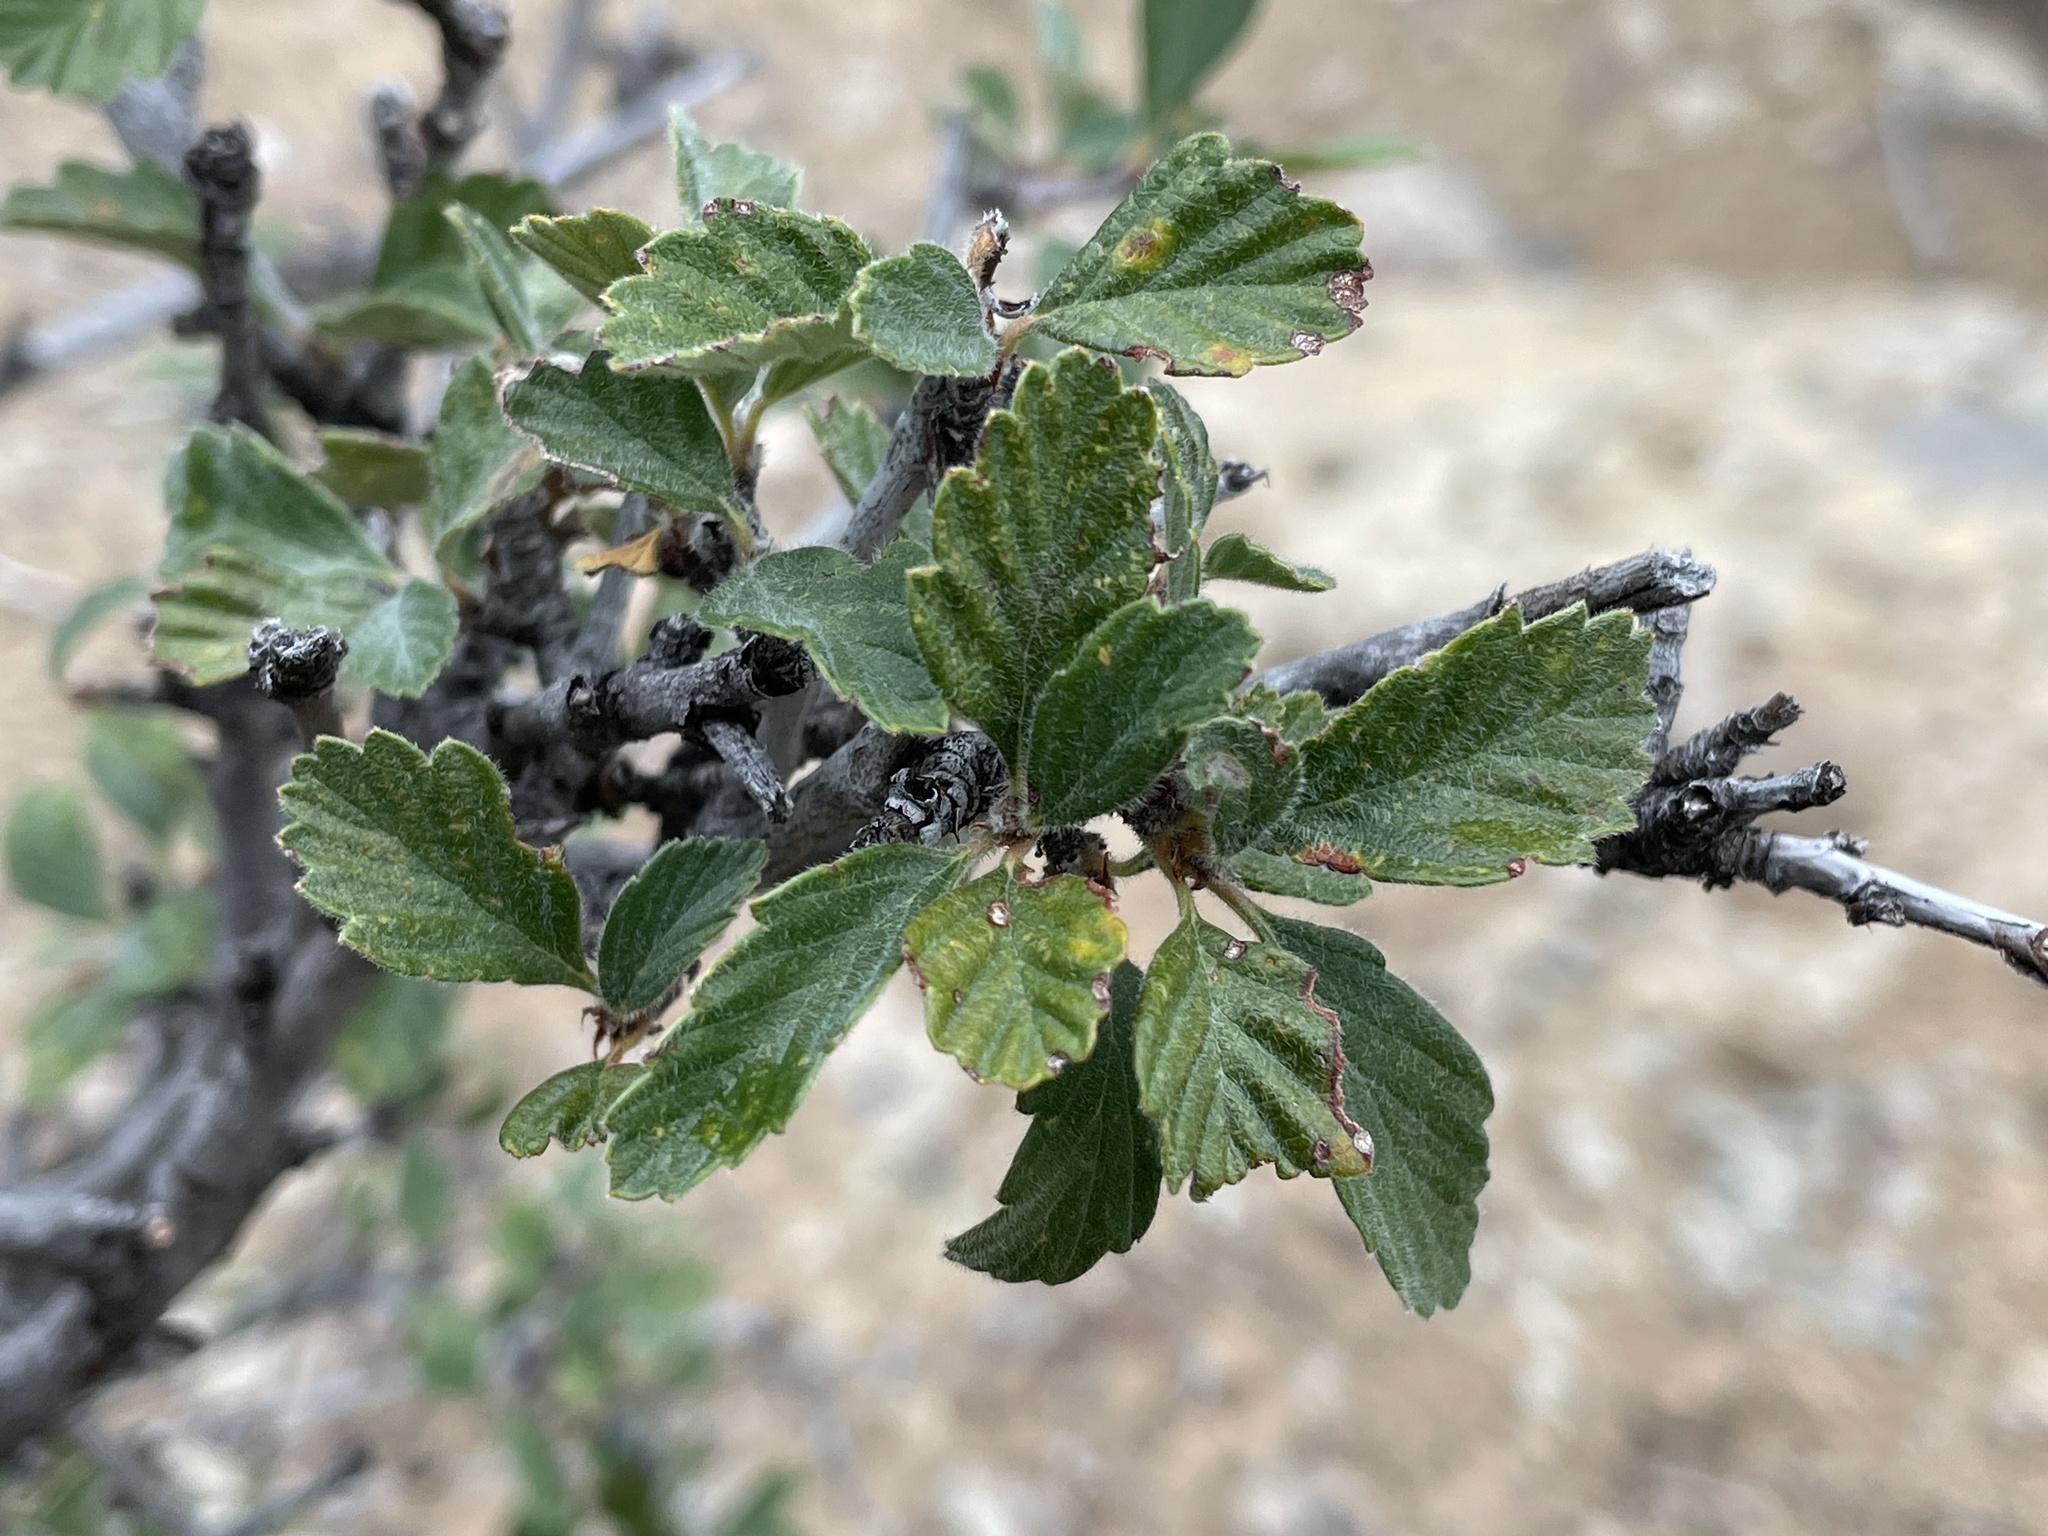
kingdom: Plantae
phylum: Tracheophyta
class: Magnoliopsida
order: Rosales
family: Rosaceae
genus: Cercocarpus
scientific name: Cercocarpus montanus
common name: Alder-leaf cercocarpus
